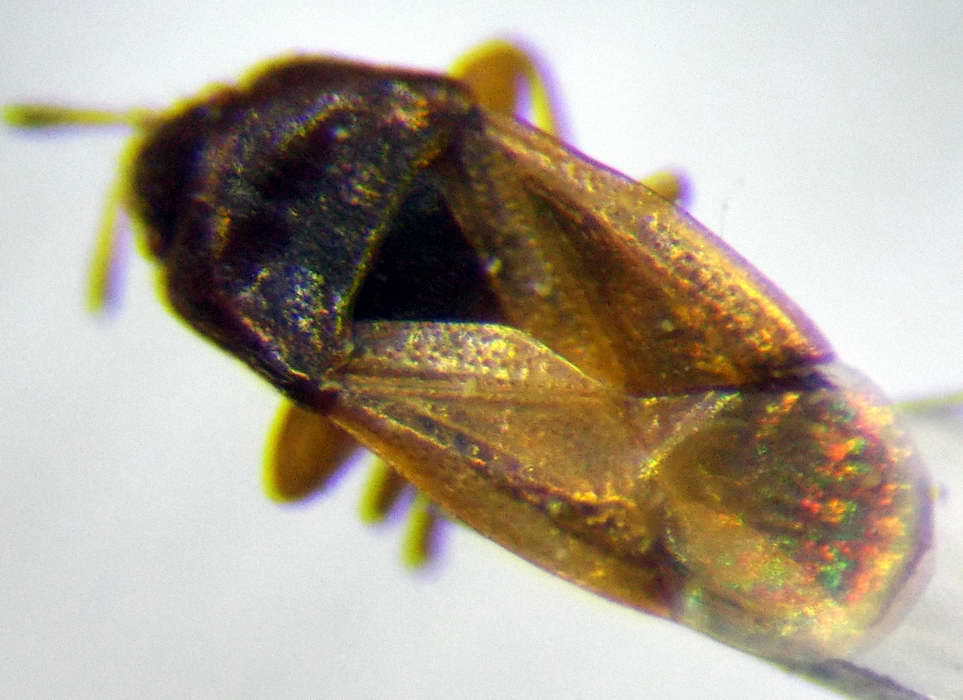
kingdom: Animalia
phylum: Arthropoda
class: Insecta
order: Hemiptera
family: Rhyparochromidae
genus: Stygnocorisella
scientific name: Stygnocorisella mayeti
